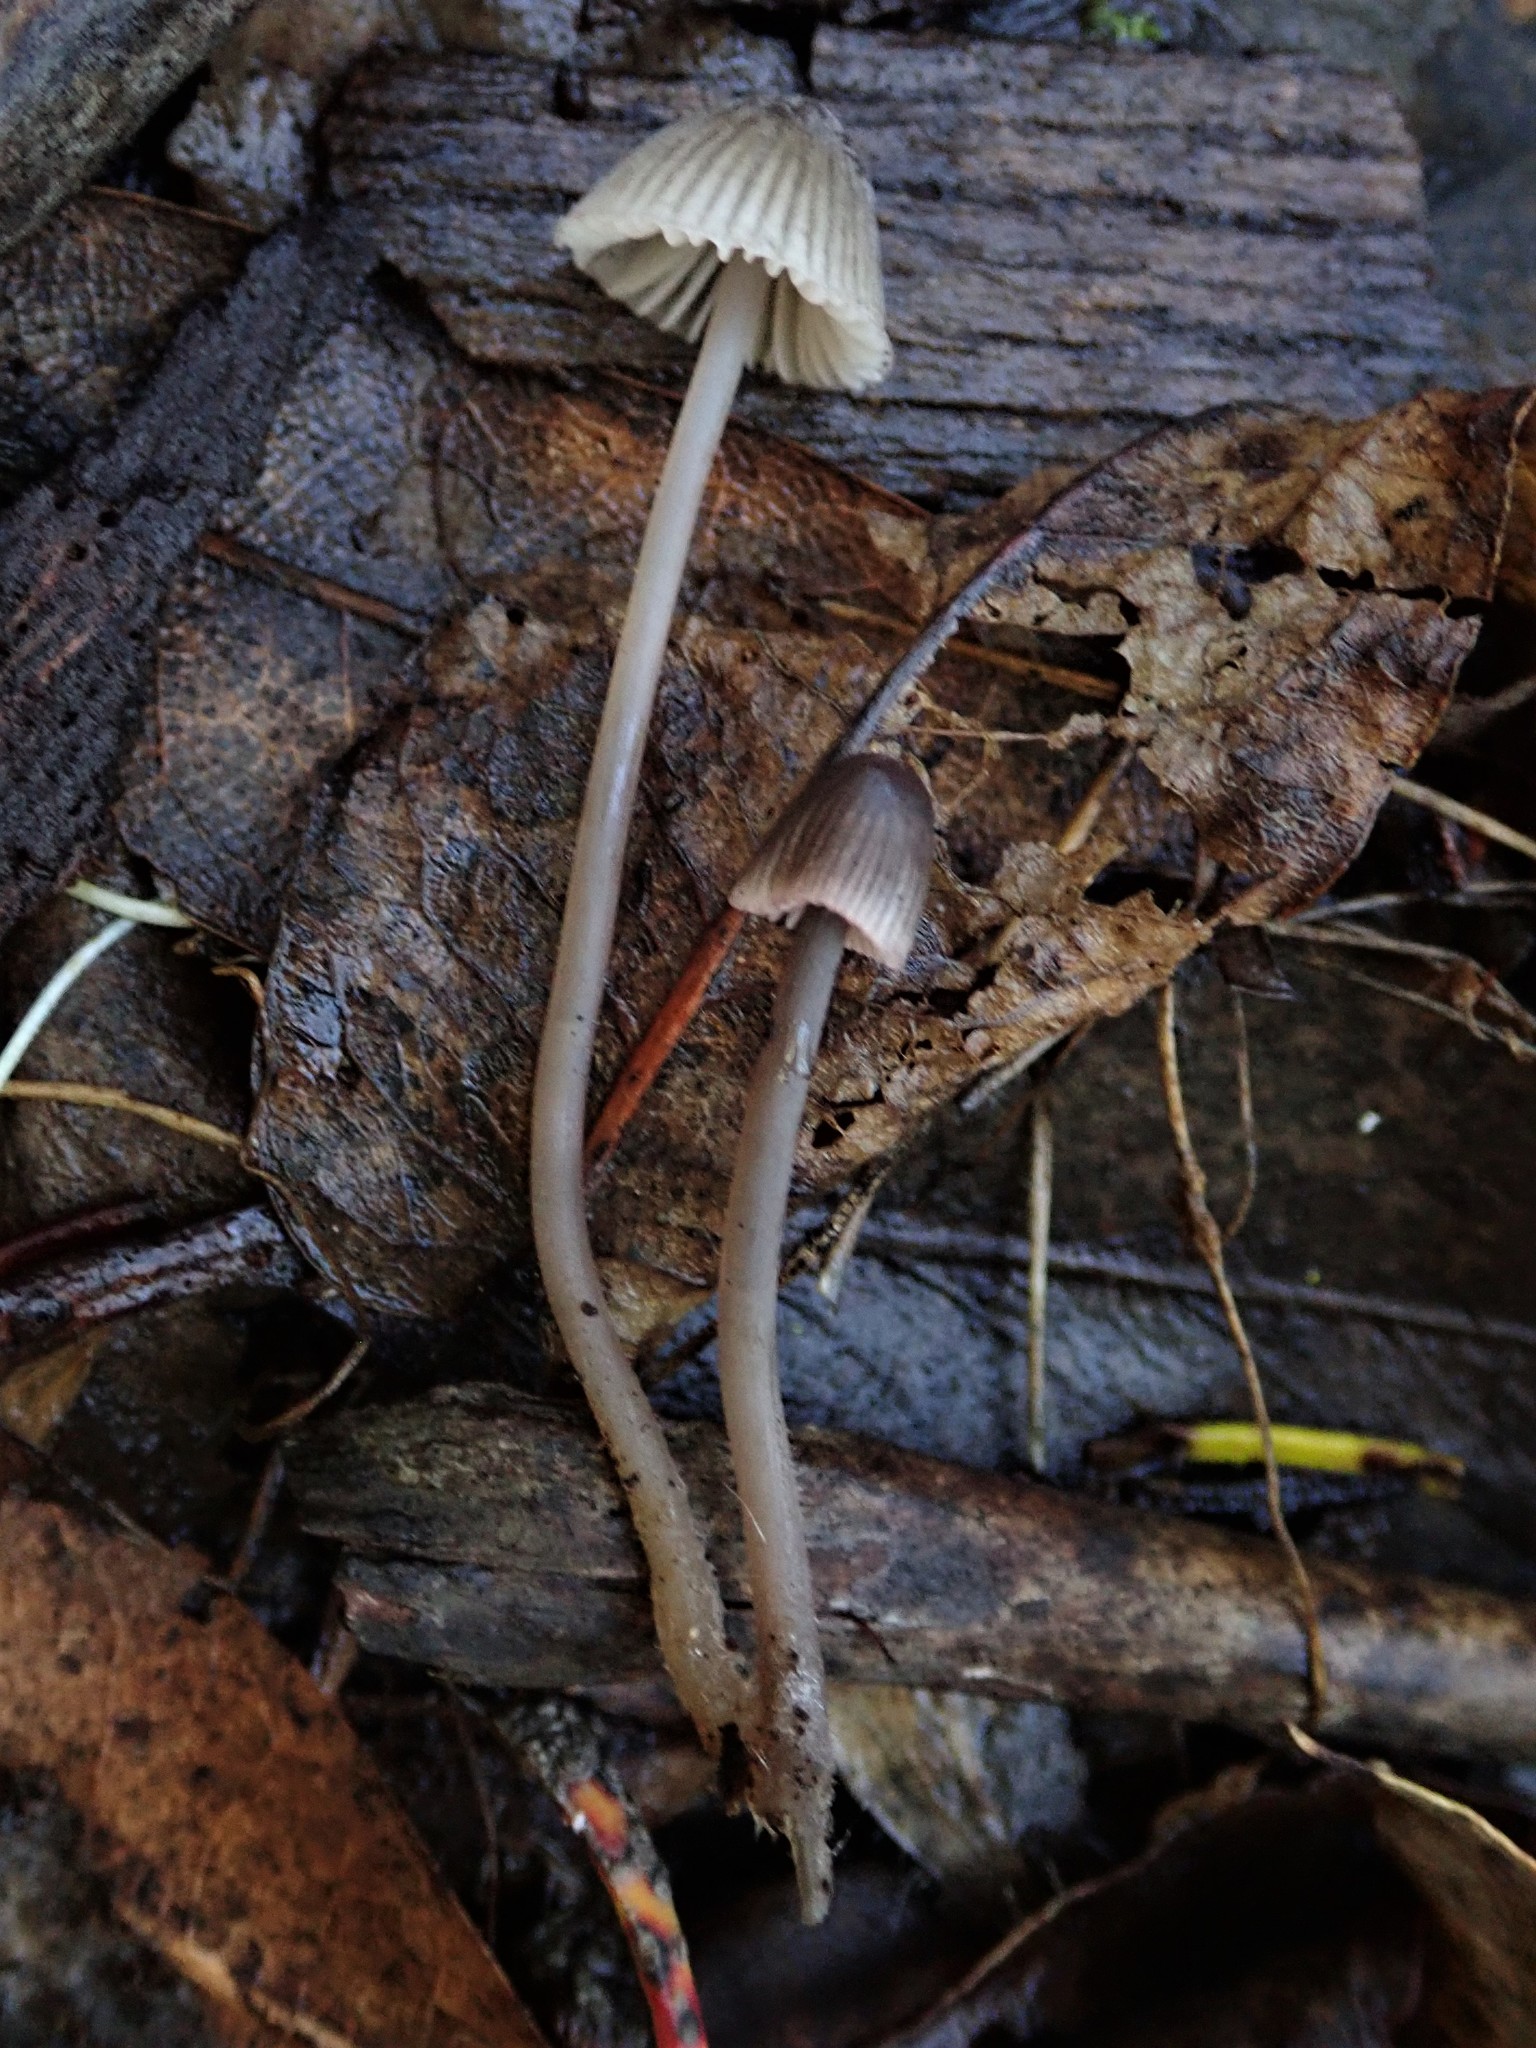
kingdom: Fungi
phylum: Basidiomycota
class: Agaricomycetes
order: Agaricales
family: Mycenaceae
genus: Mycena
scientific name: Mycena capillaripes
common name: Pinkedge bonnet
